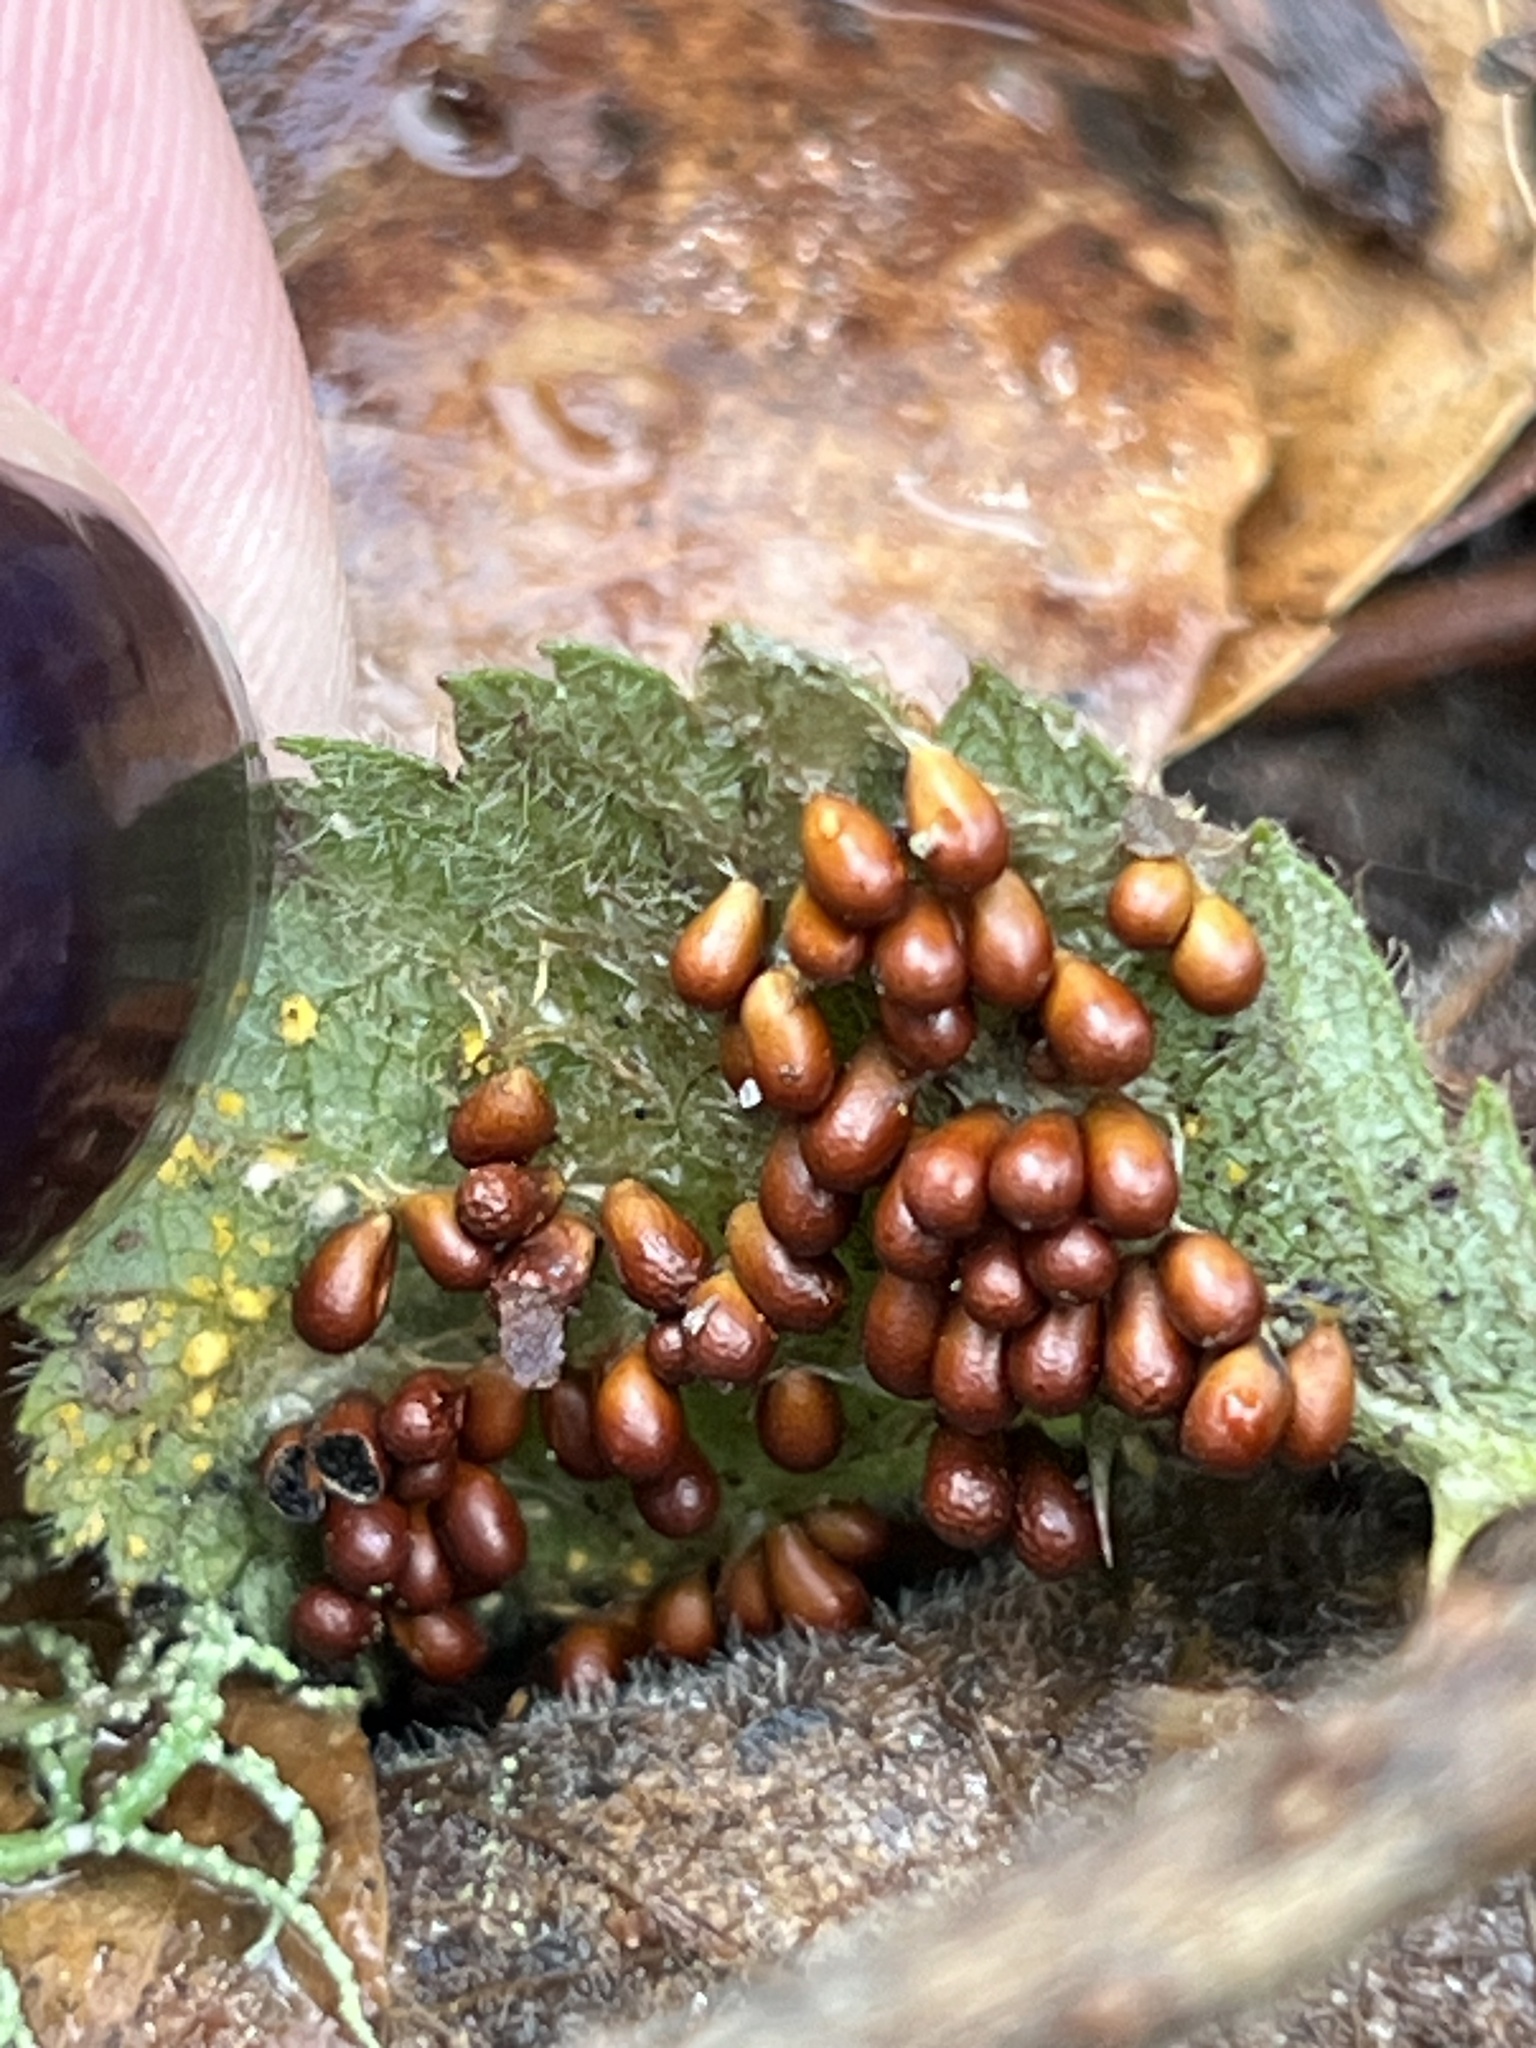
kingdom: Protozoa
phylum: Mycetozoa
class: Myxomycetes
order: Physarales
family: Physaraceae
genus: Leocarpus
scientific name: Leocarpus fragilis
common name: Insect-egg slime
